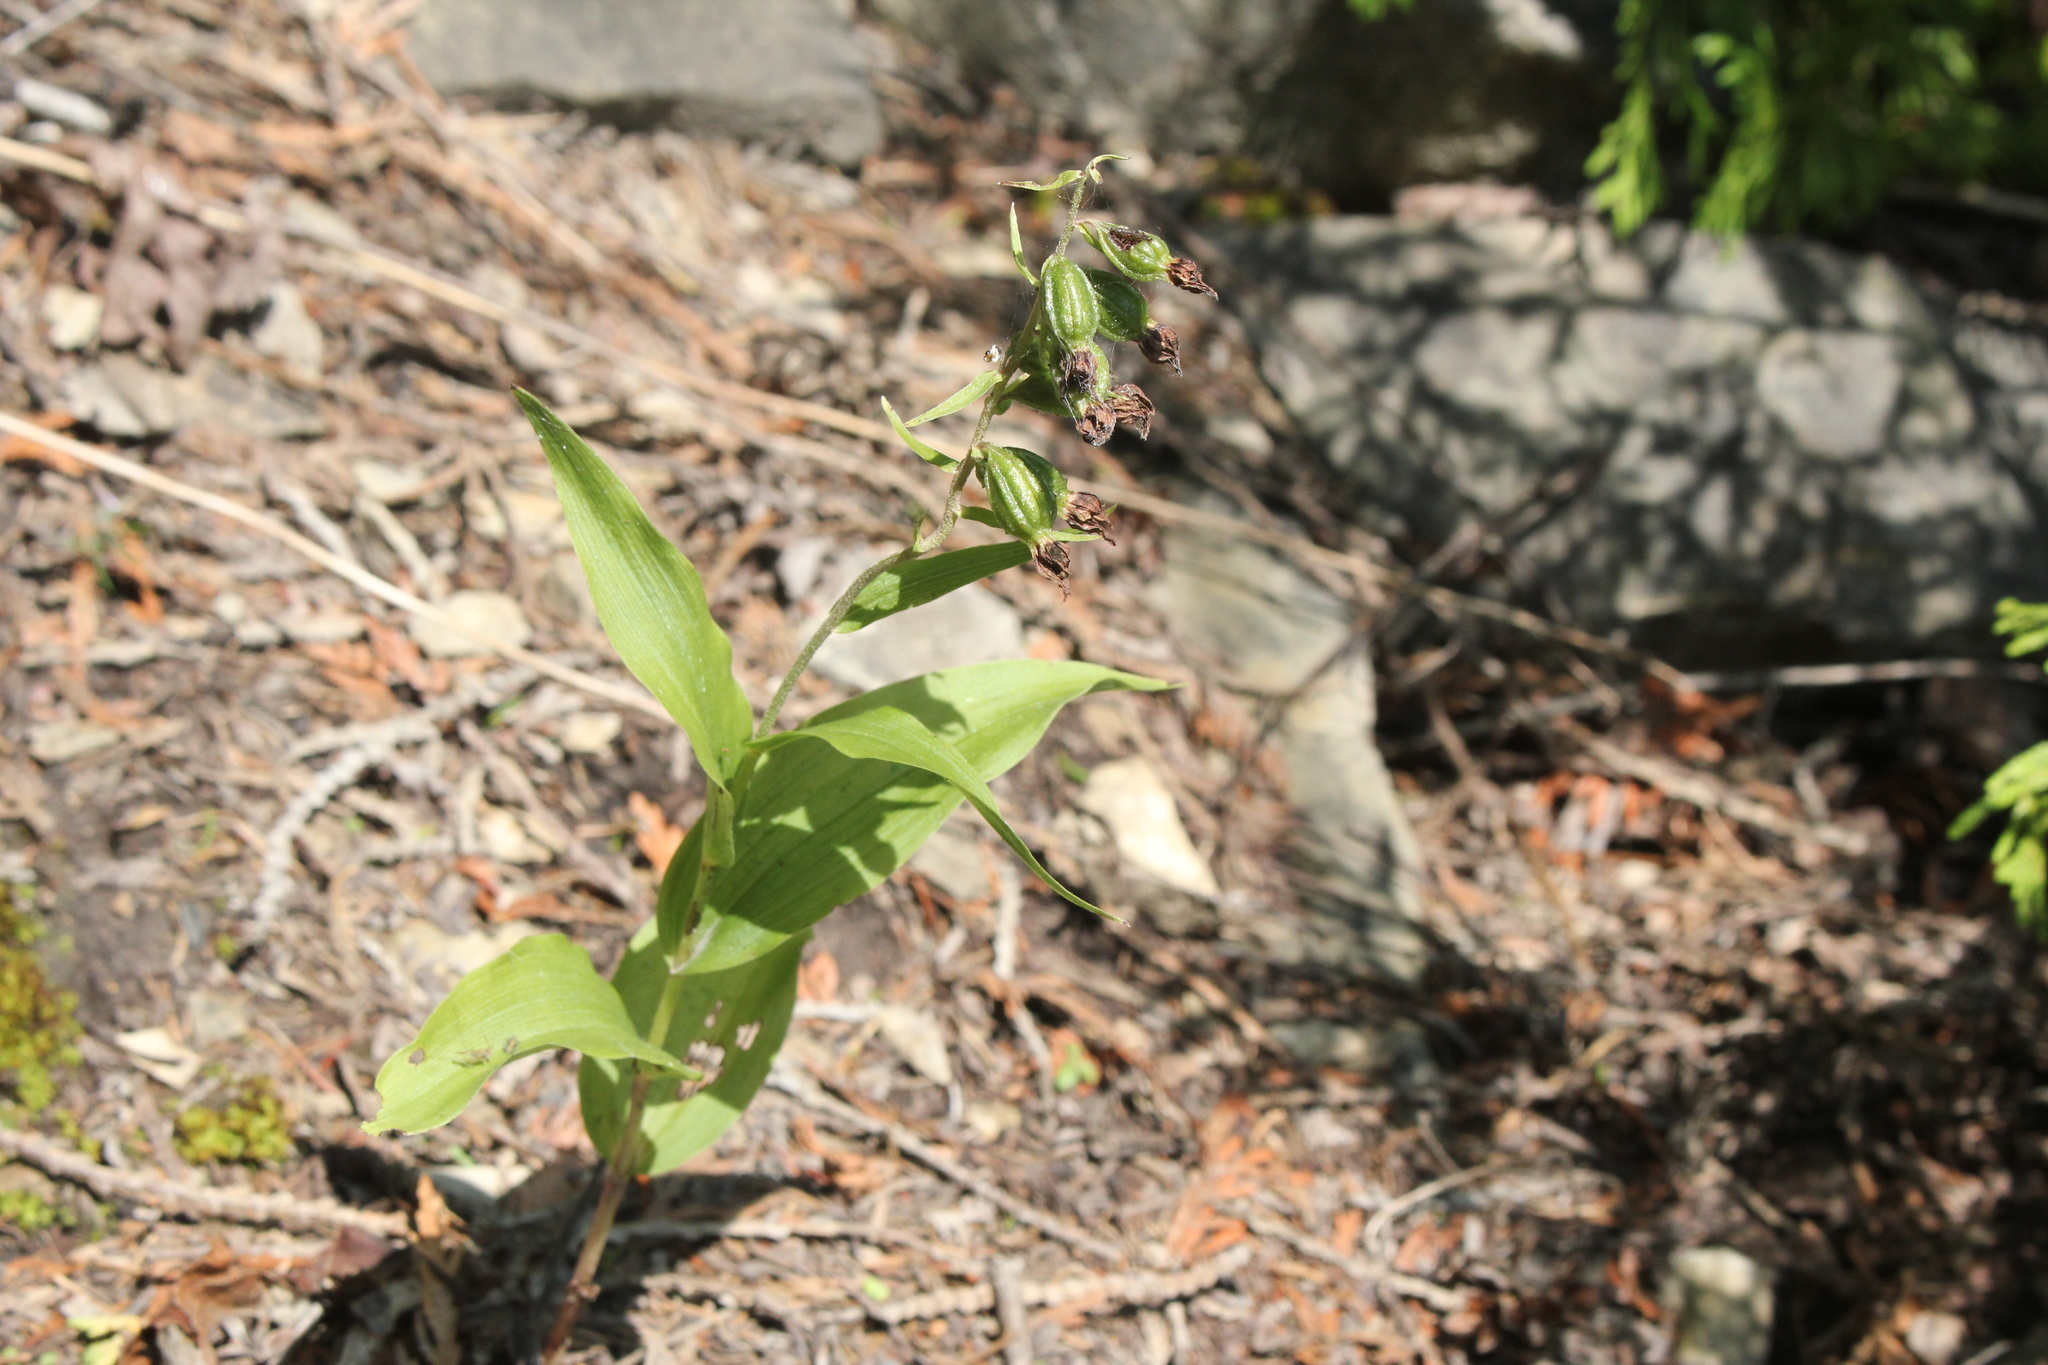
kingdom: Plantae
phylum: Tracheophyta
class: Liliopsida
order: Asparagales
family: Orchidaceae
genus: Epipactis
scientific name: Epipactis helleborine
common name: Broad-leaved helleborine
